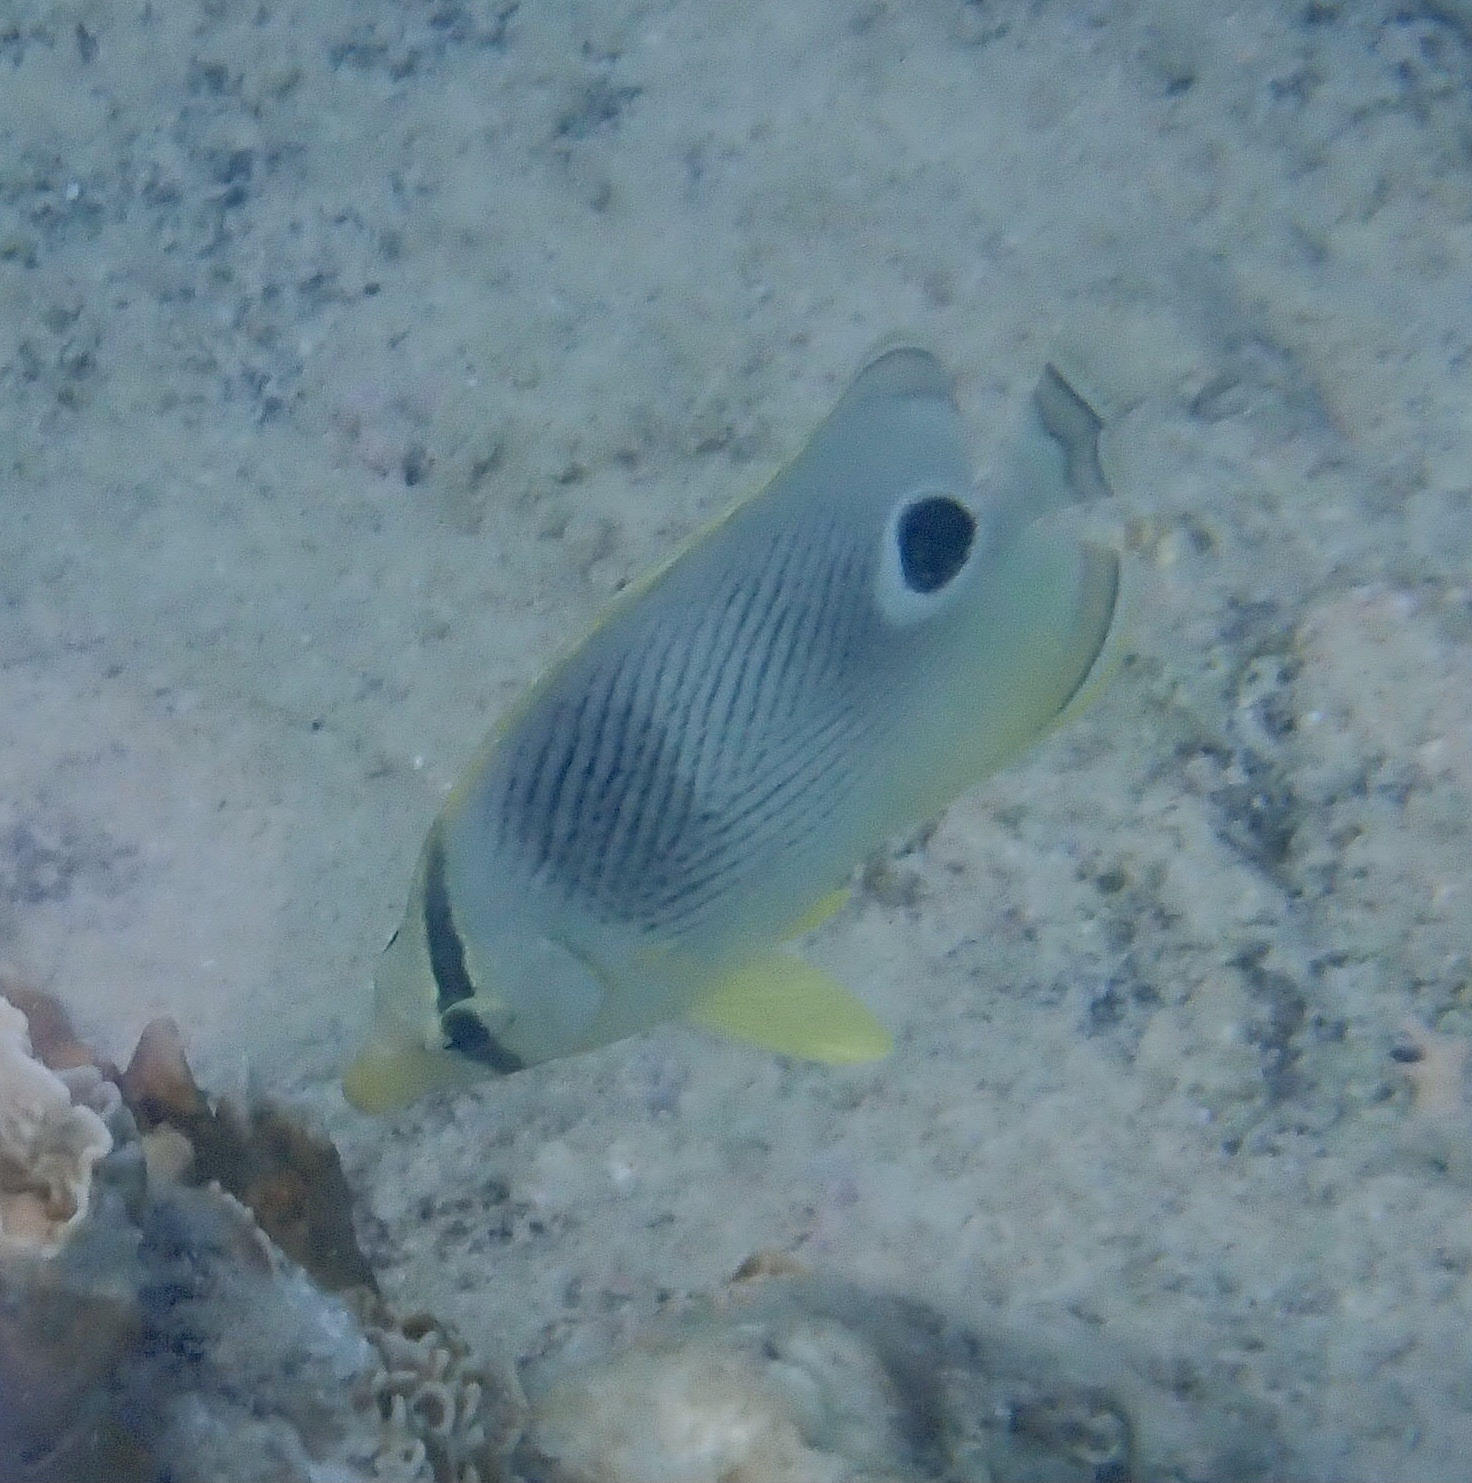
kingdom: Animalia
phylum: Chordata
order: Perciformes
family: Chaetodontidae
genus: Chaetodon
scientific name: Chaetodon capistratus
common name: Kete
